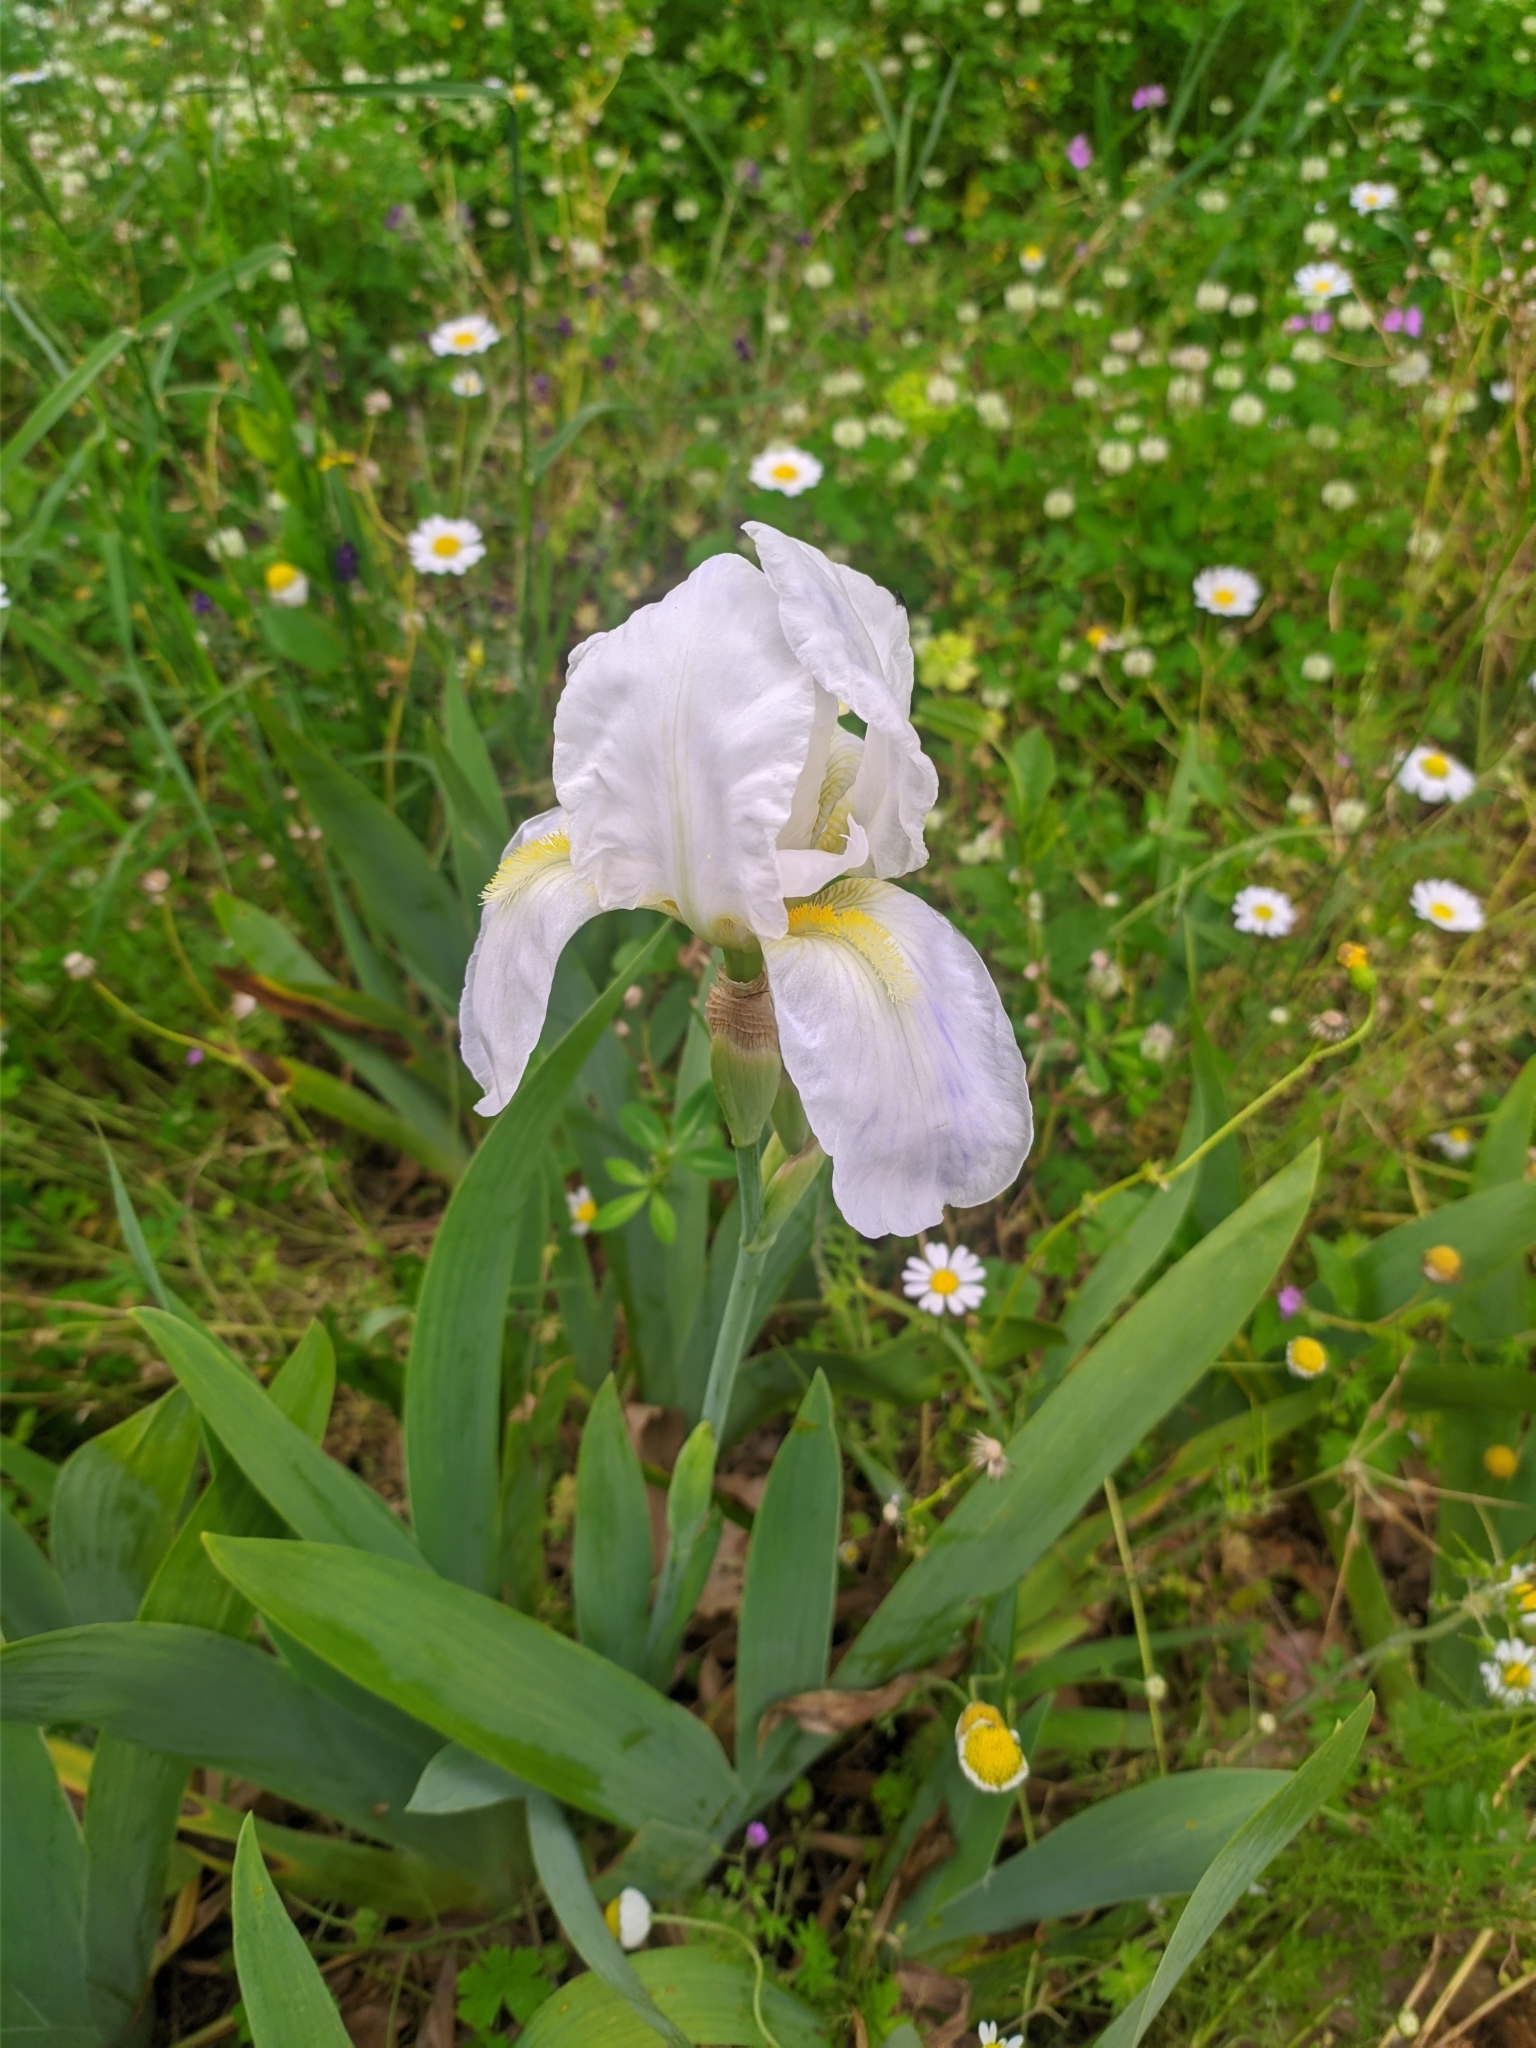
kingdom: Plantae
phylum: Tracheophyta
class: Liliopsida
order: Asparagales
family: Iridaceae
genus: Iris
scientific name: Iris florentina
